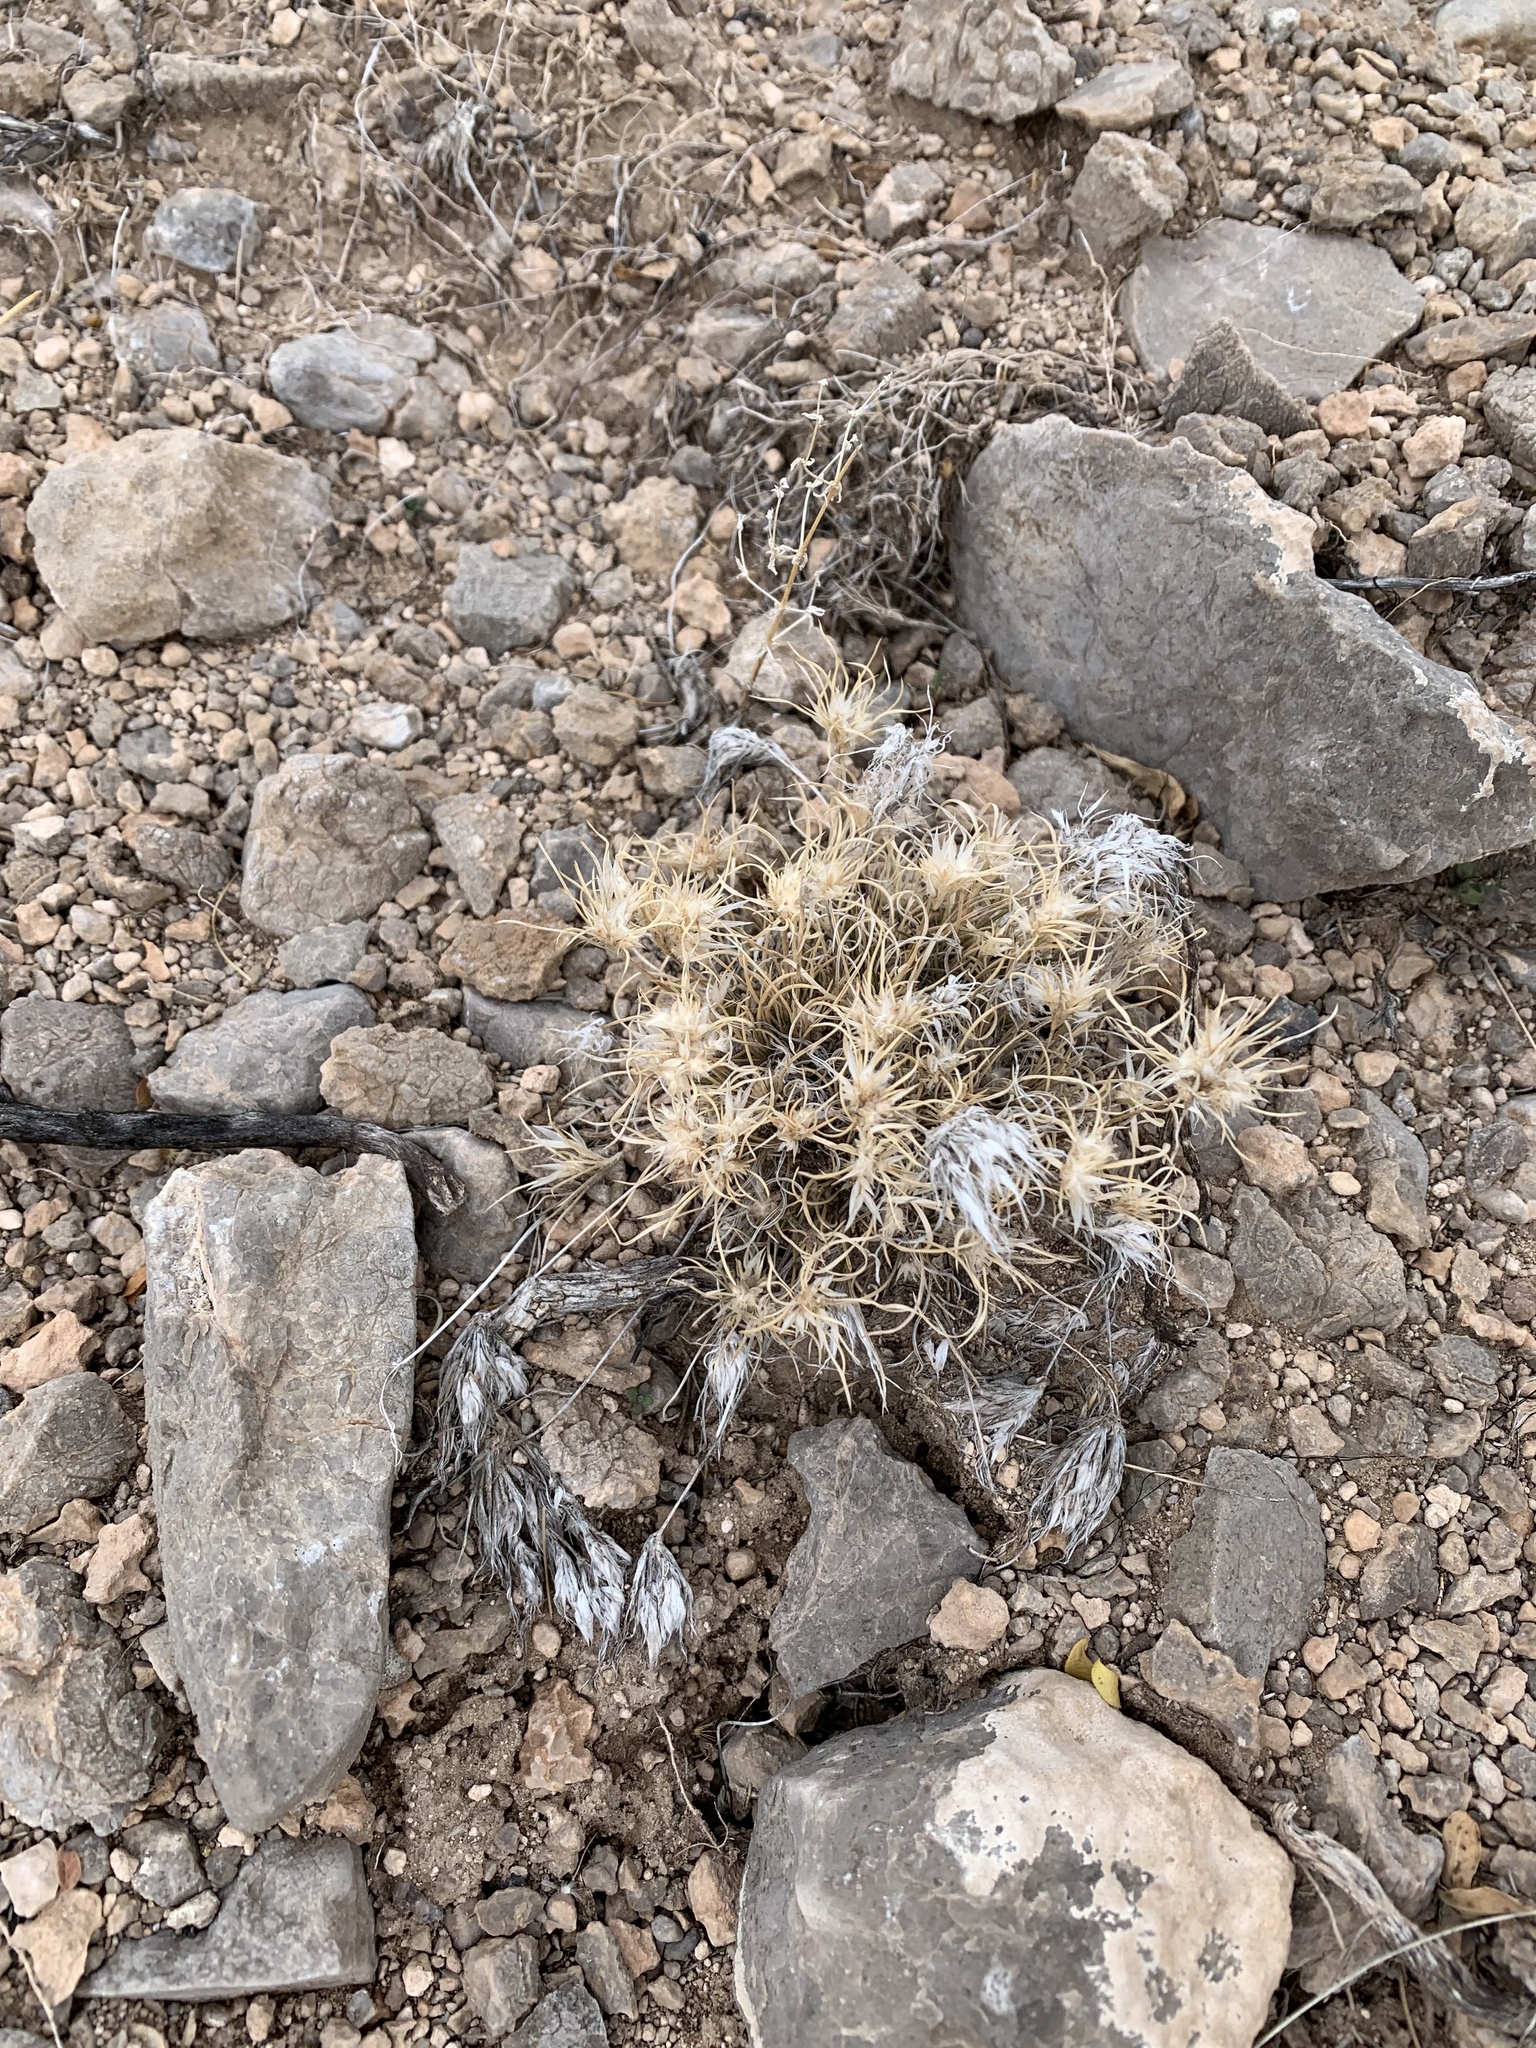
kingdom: Plantae
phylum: Tracheophyta
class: Liliopsida
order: Poales
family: Poaceae
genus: Dasyochloa
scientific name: Dasyochloa pulchella
